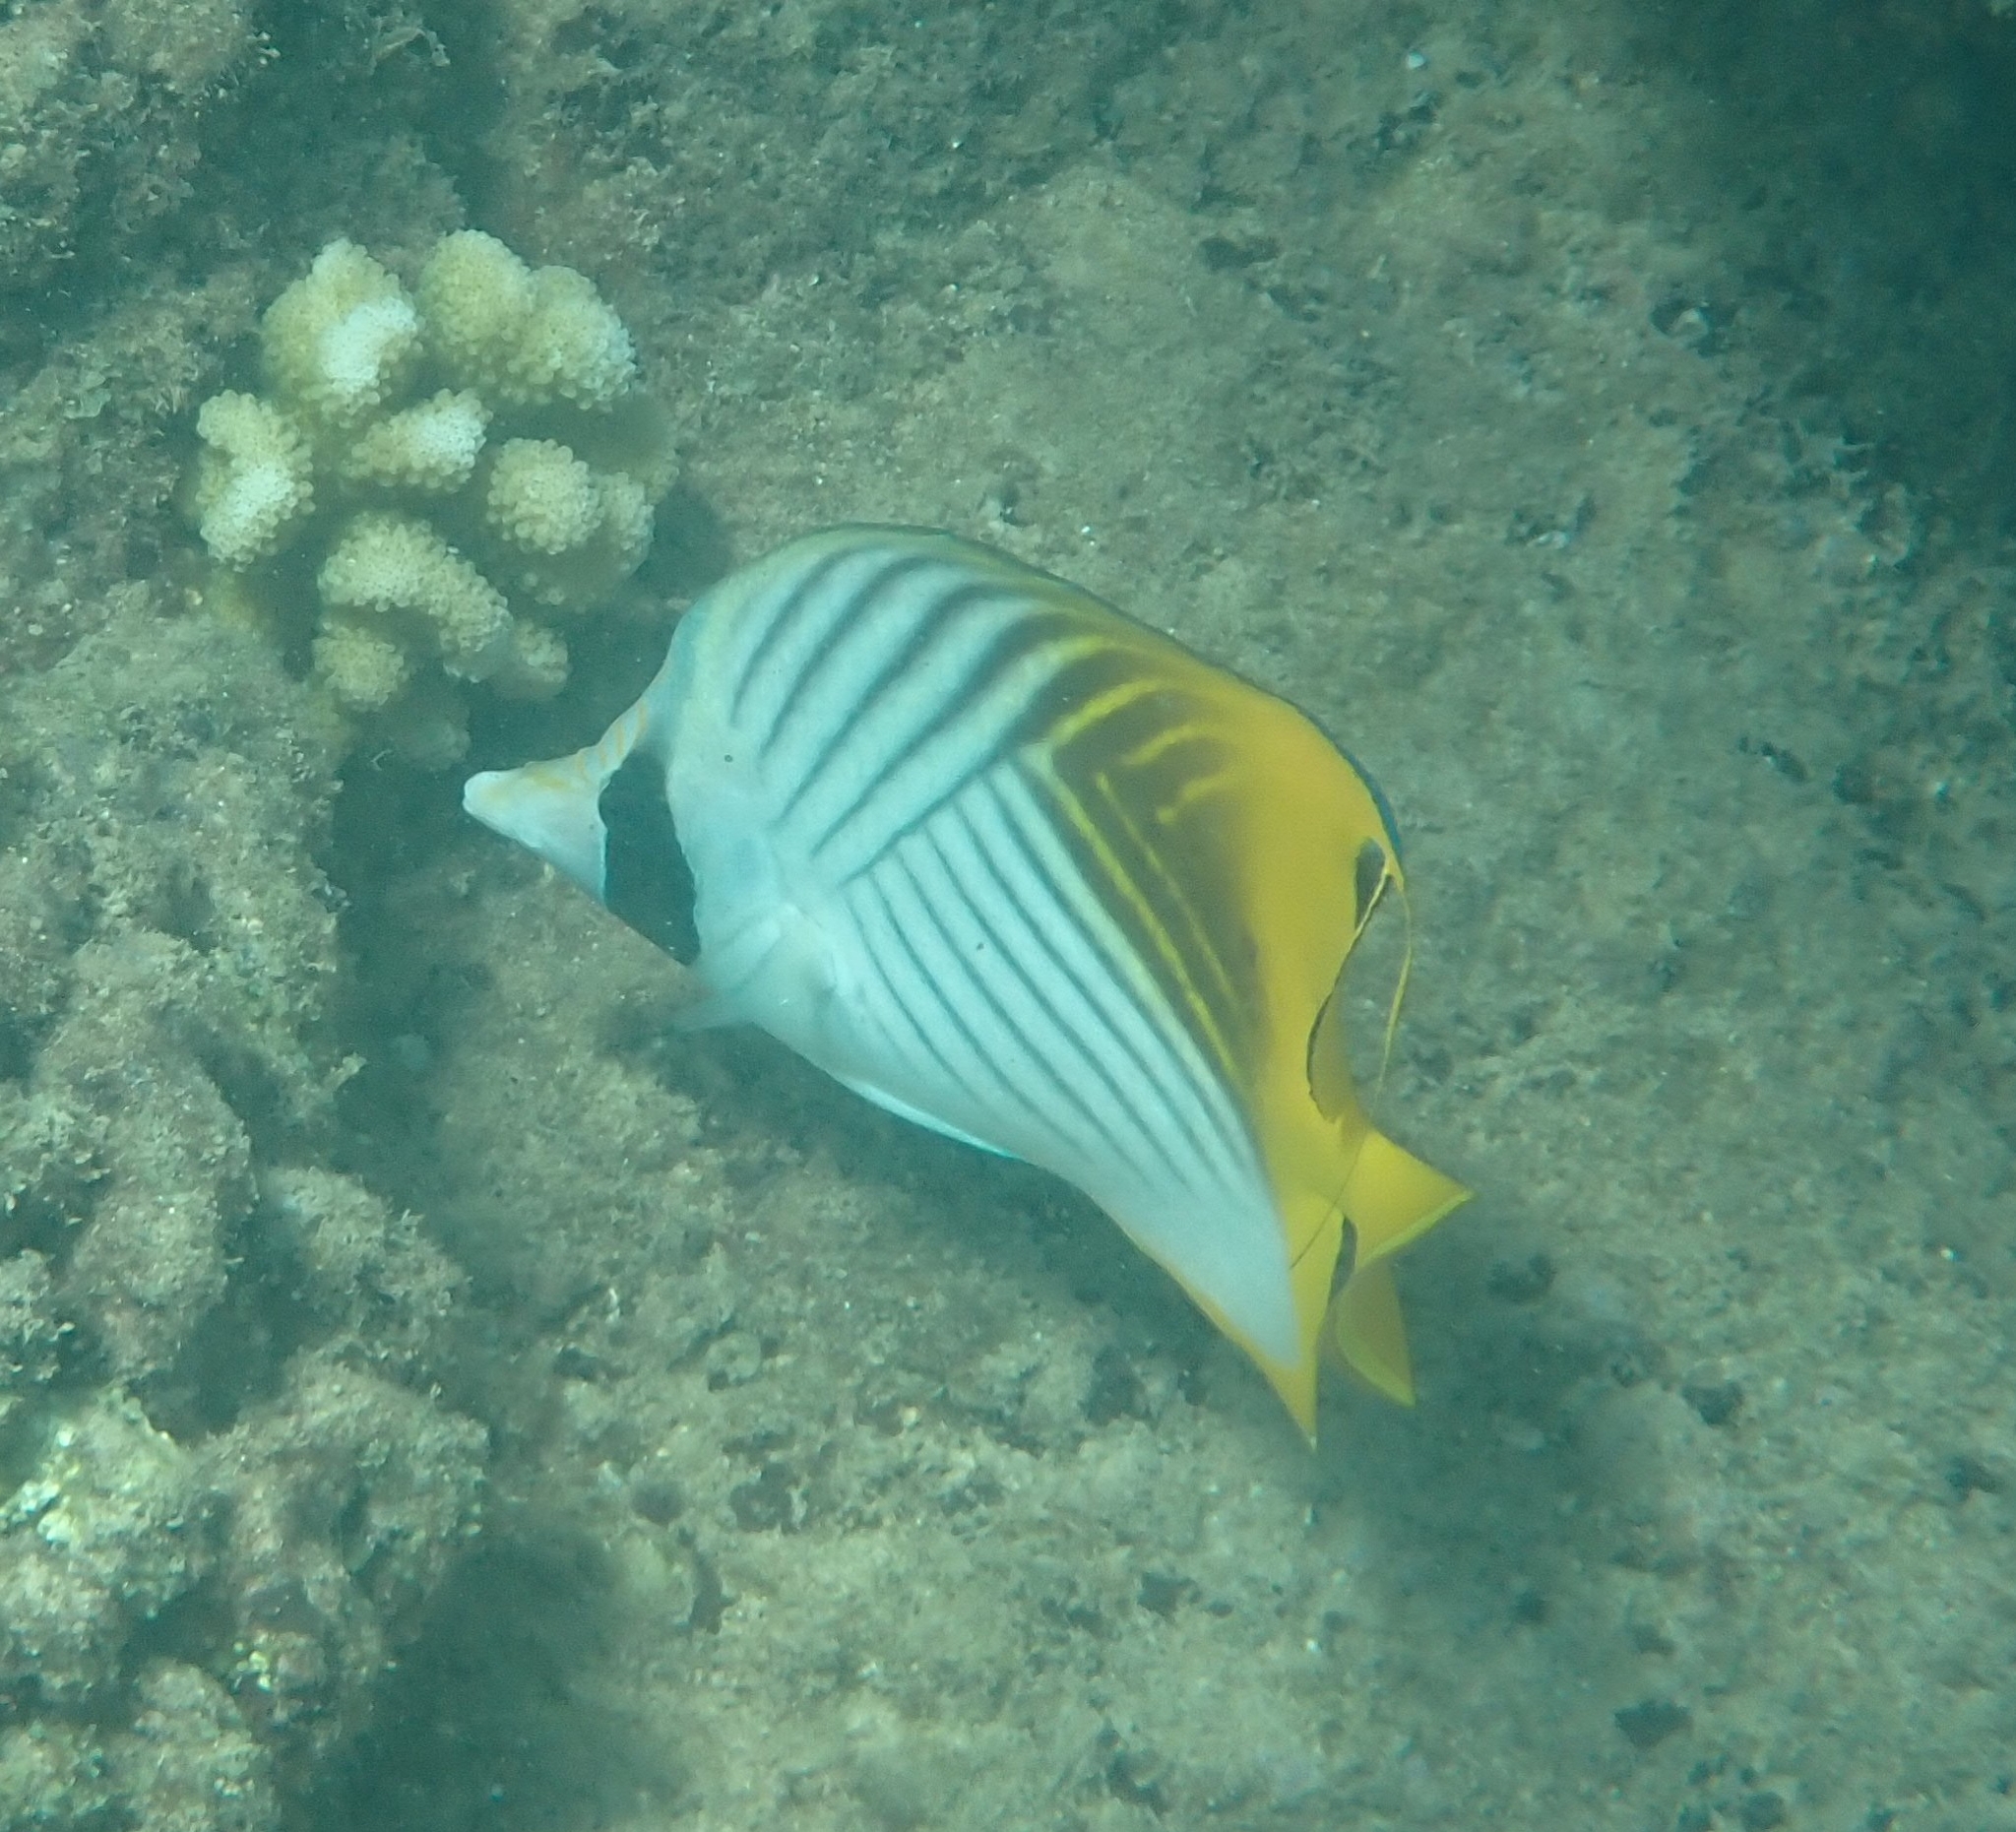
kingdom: Animalia
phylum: Chordata
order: Perciformes
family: Chaetodontidae
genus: Chaetodon
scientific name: Chaetodon auriga
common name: Threadfin butterflyfish
